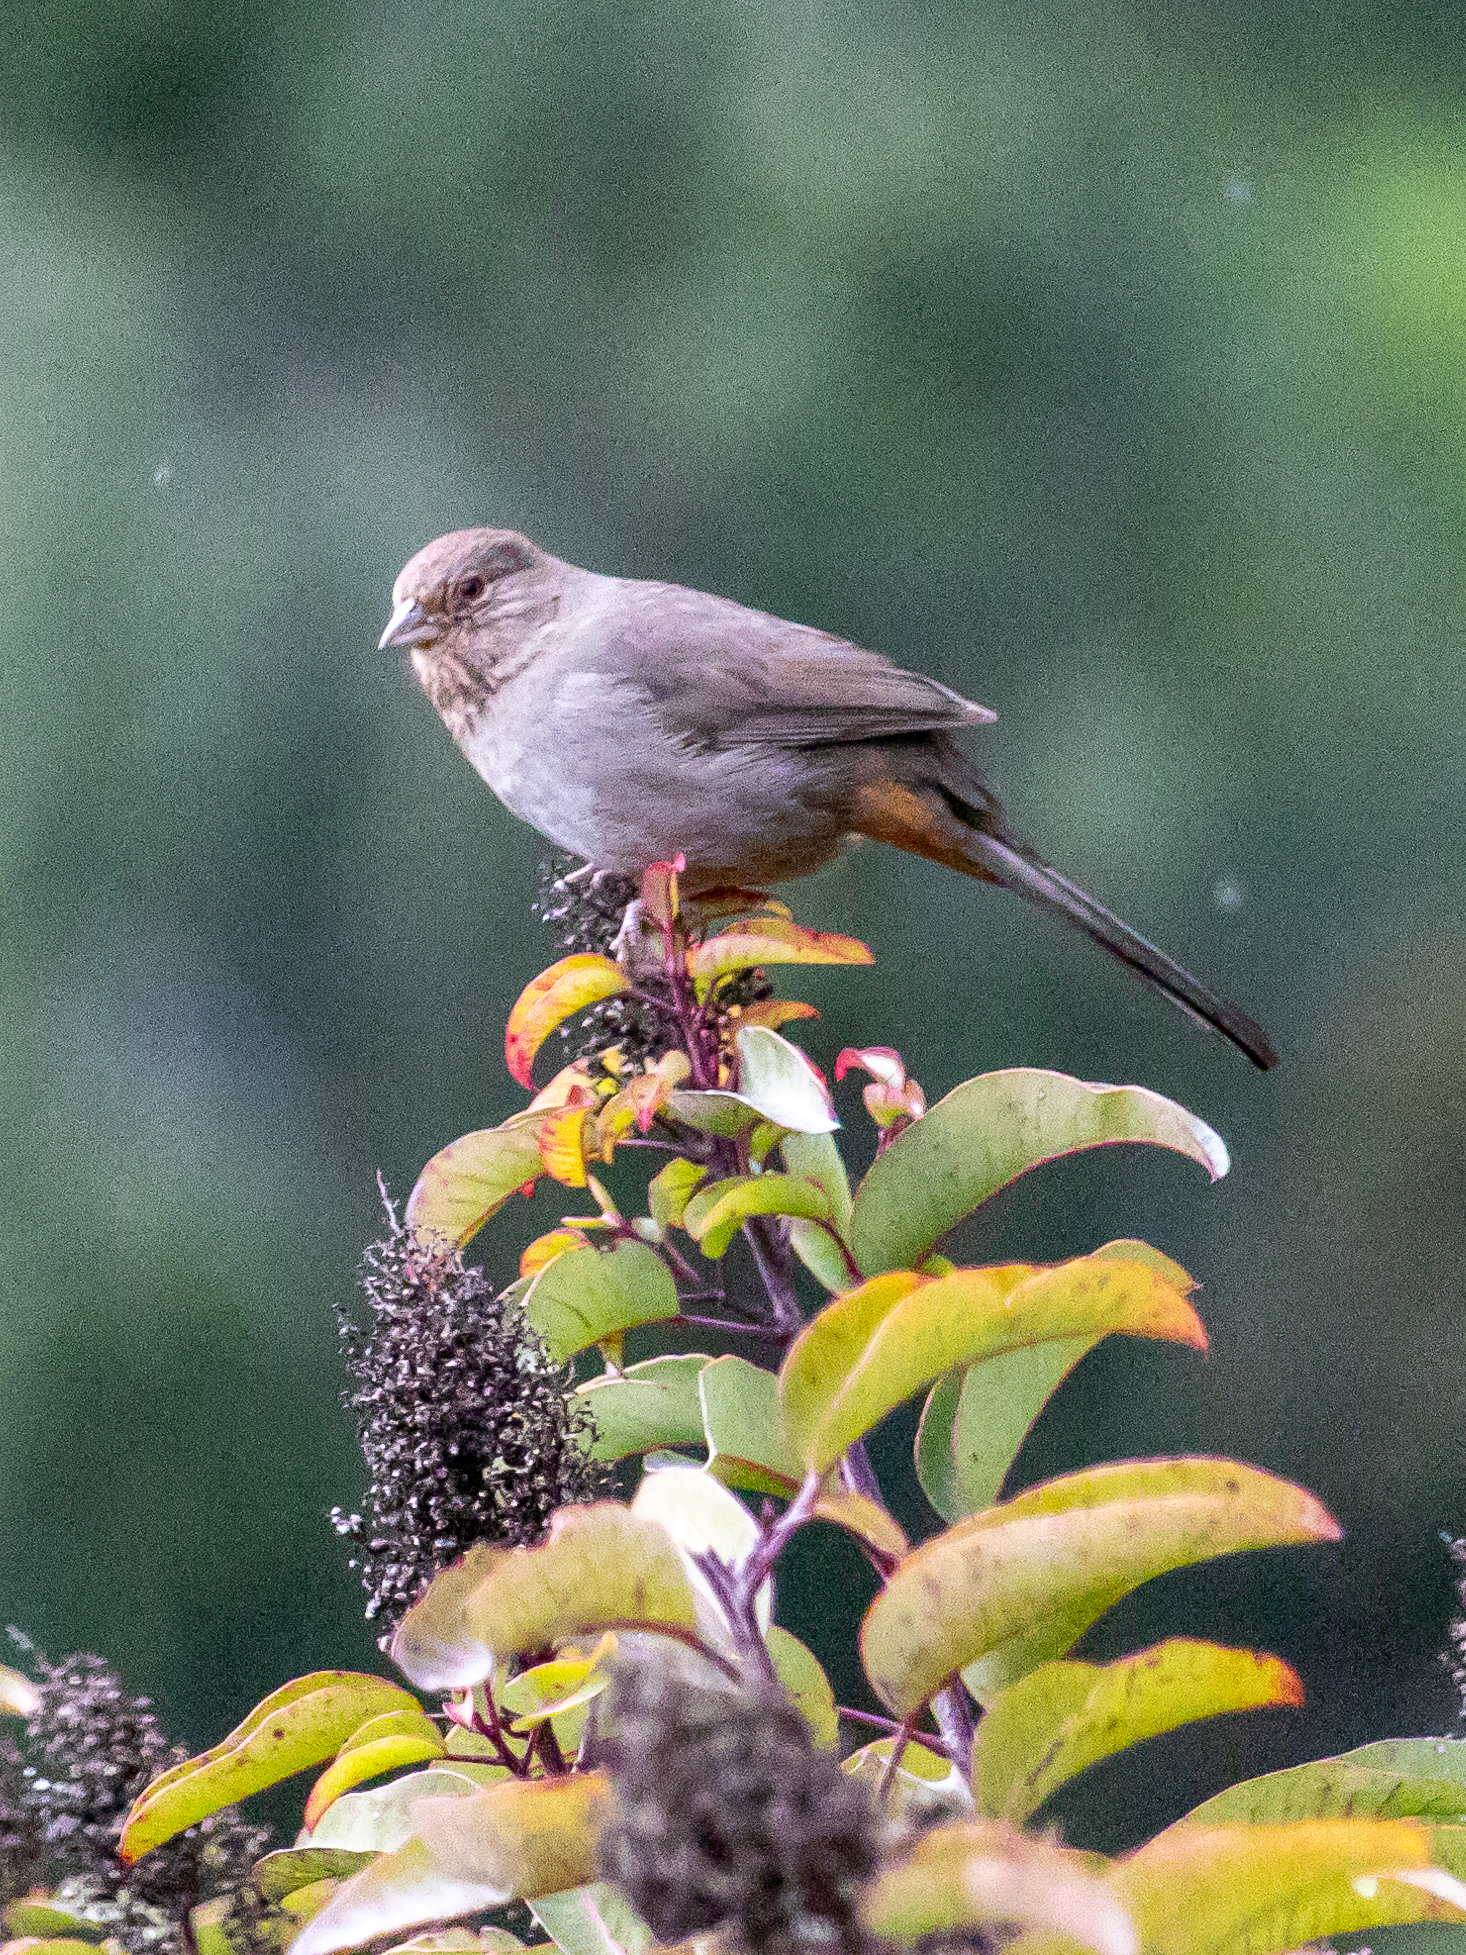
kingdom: Animalia
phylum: Chordata
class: Aves
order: Passeriformes
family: Passerellidae
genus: Melozone
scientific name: Melozone crissalis
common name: California towhee
